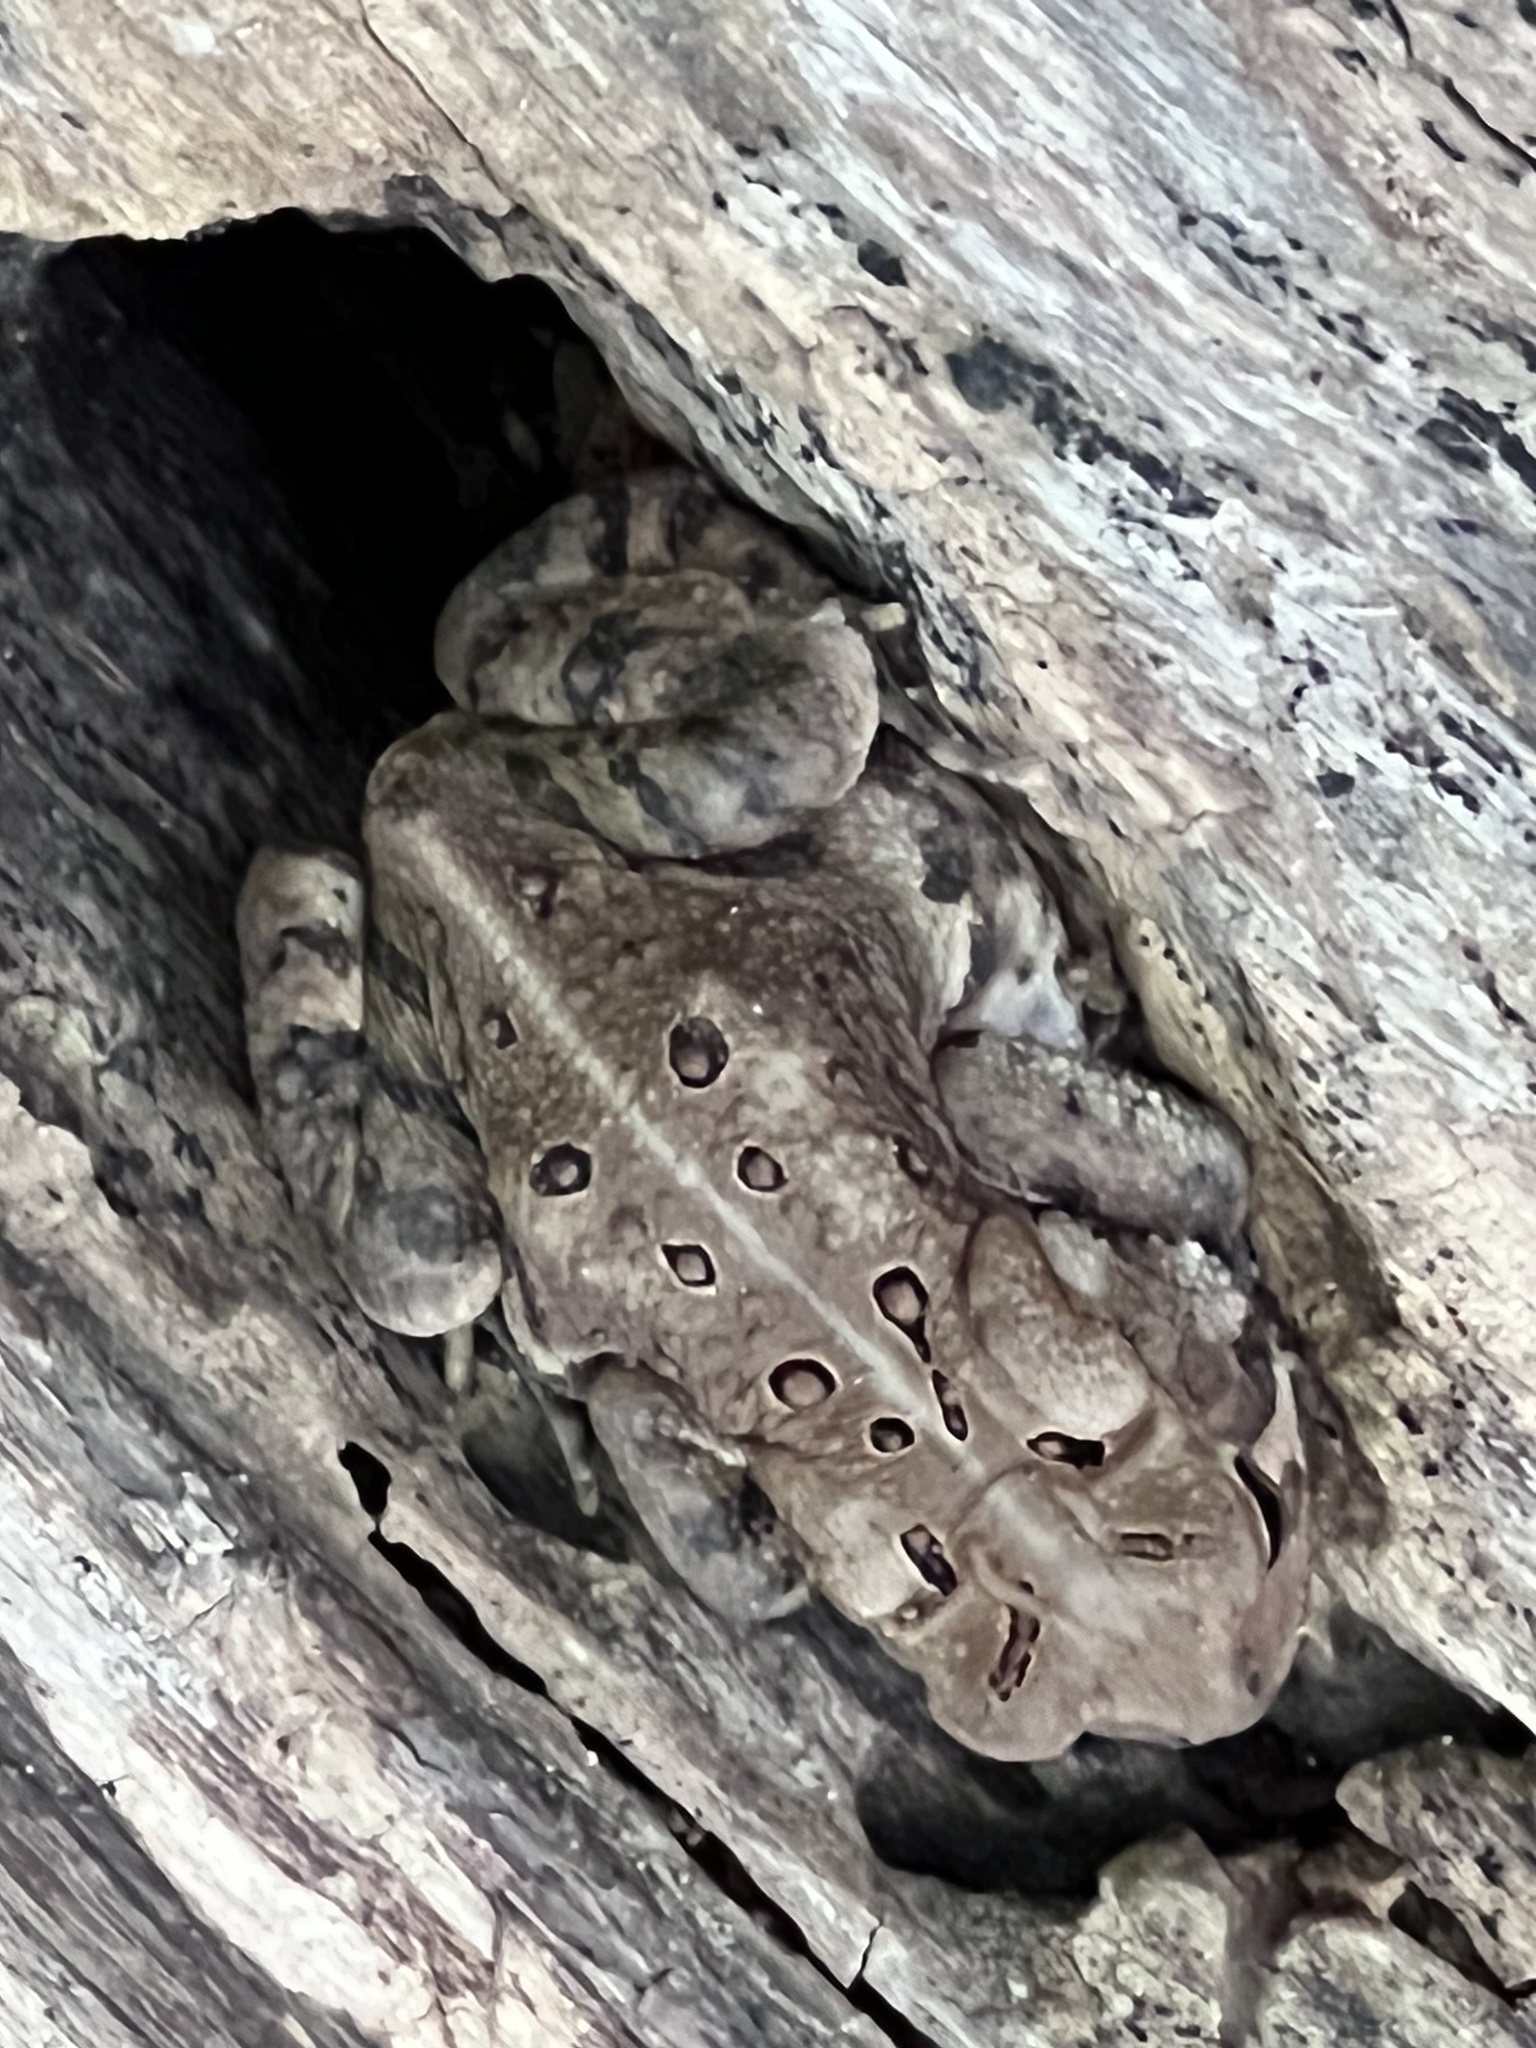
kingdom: Animalia
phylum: Chordata
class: Amphibia
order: Anura
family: Bufonidae
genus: Anaxyrus
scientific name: Anaxyrus americanus
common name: American toad
